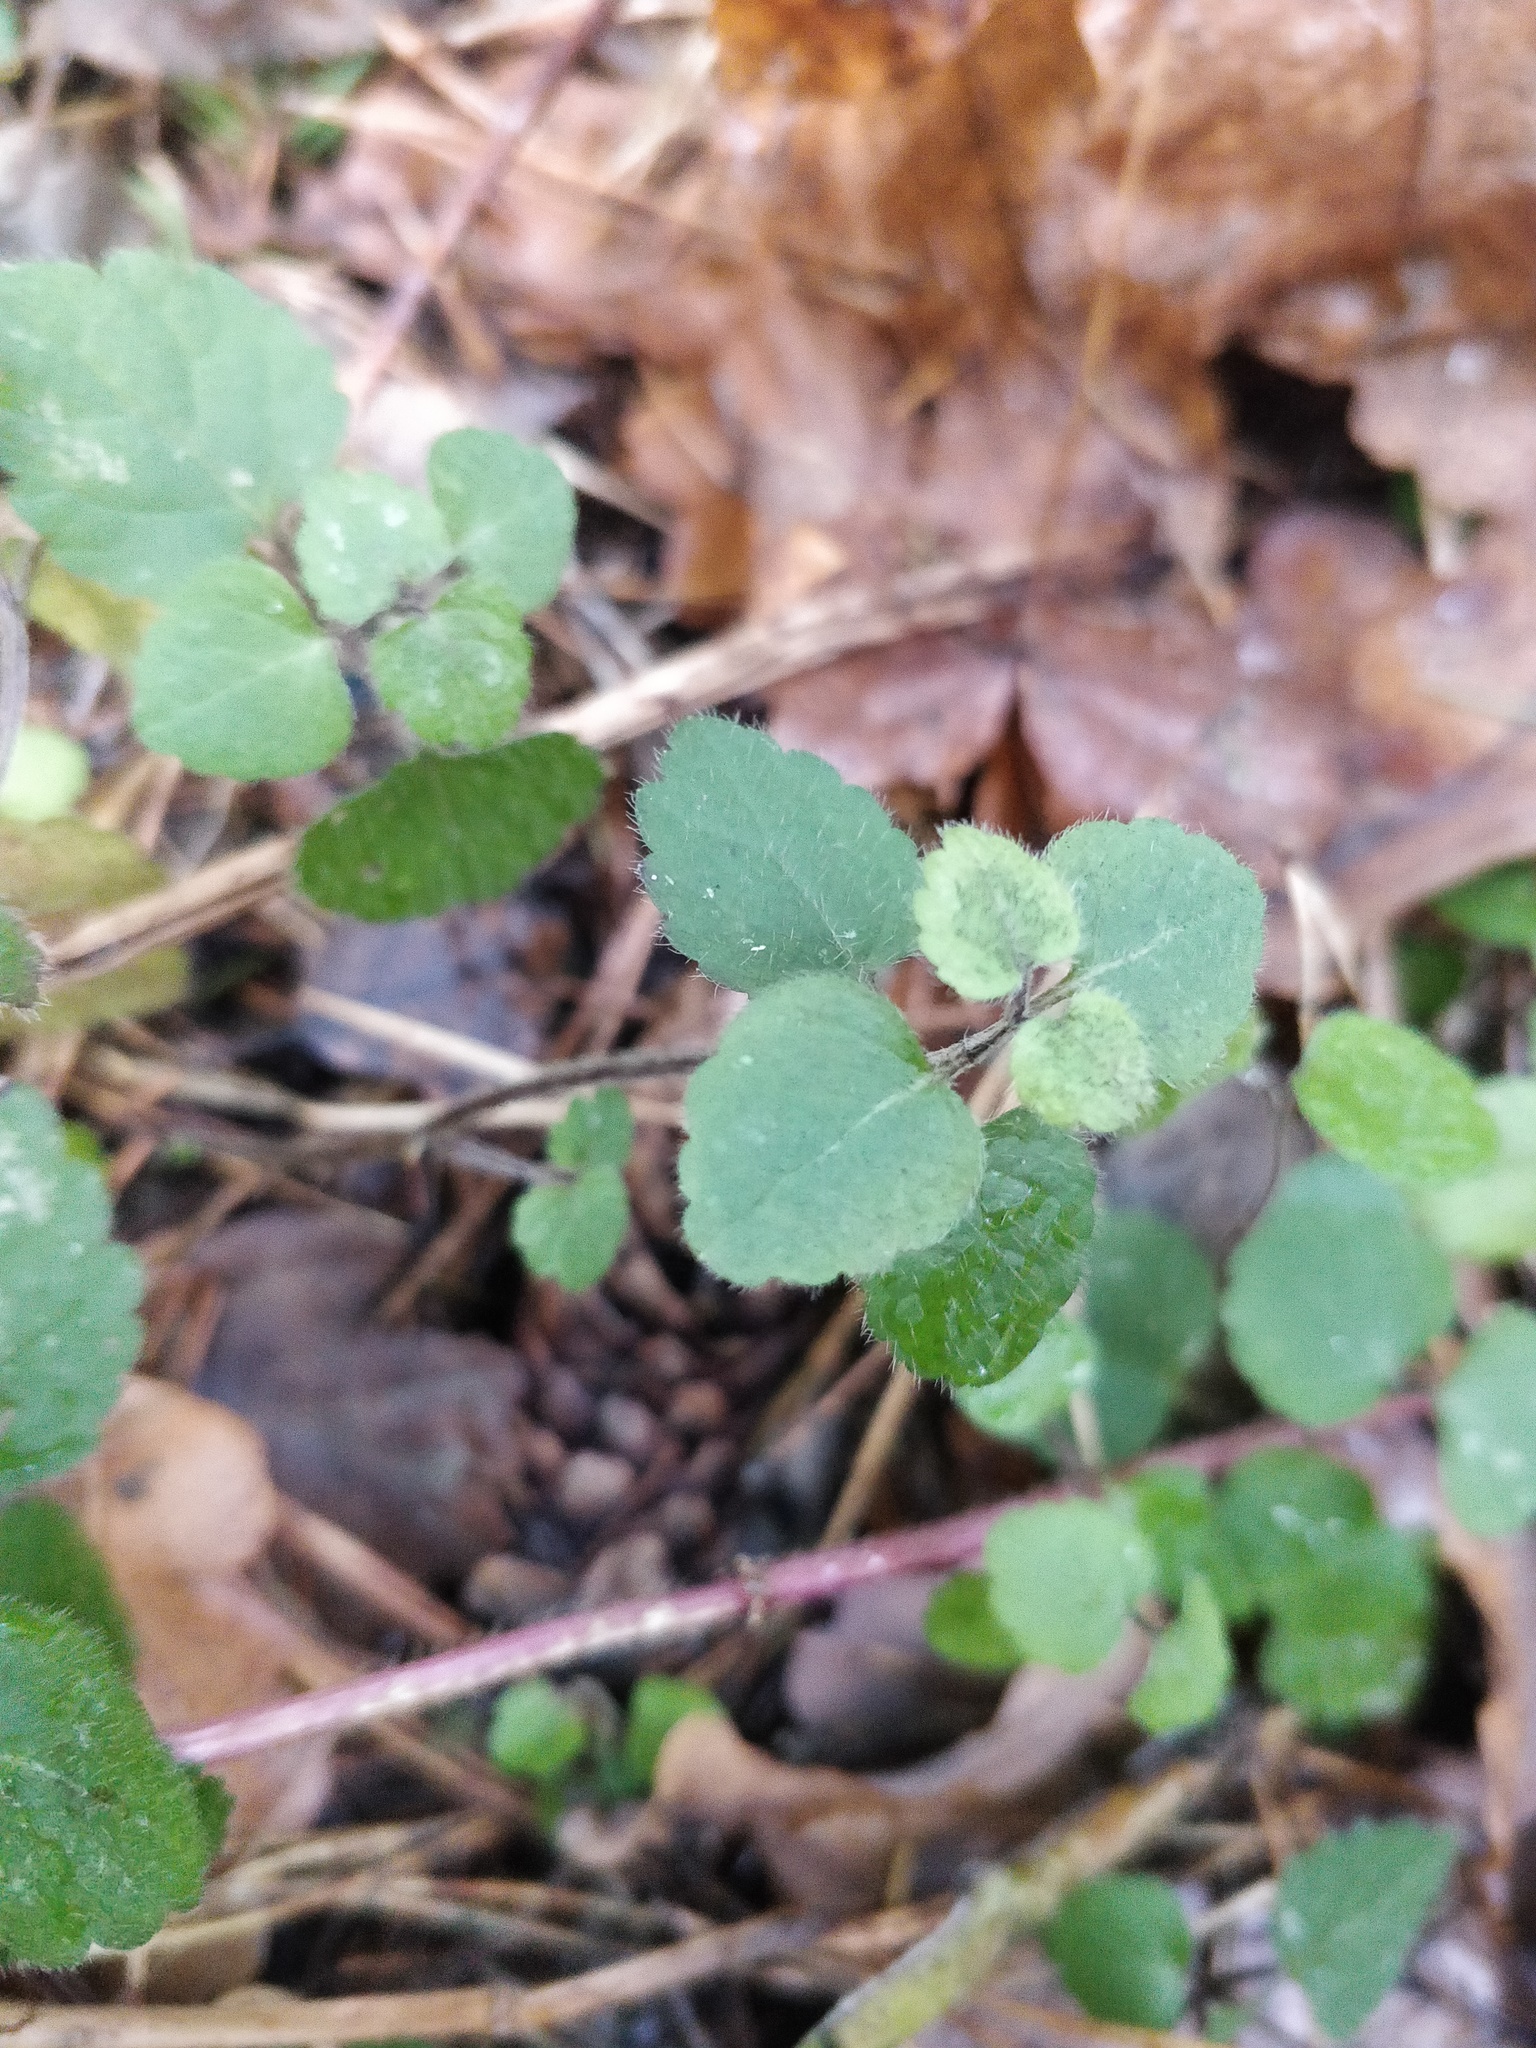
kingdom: Plantae
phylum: Tracheophyta
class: Magnoliopsida
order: Lamiales
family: Lamiaceae
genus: Lamium
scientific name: Lamium galeobdolon
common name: Yellow archangel
